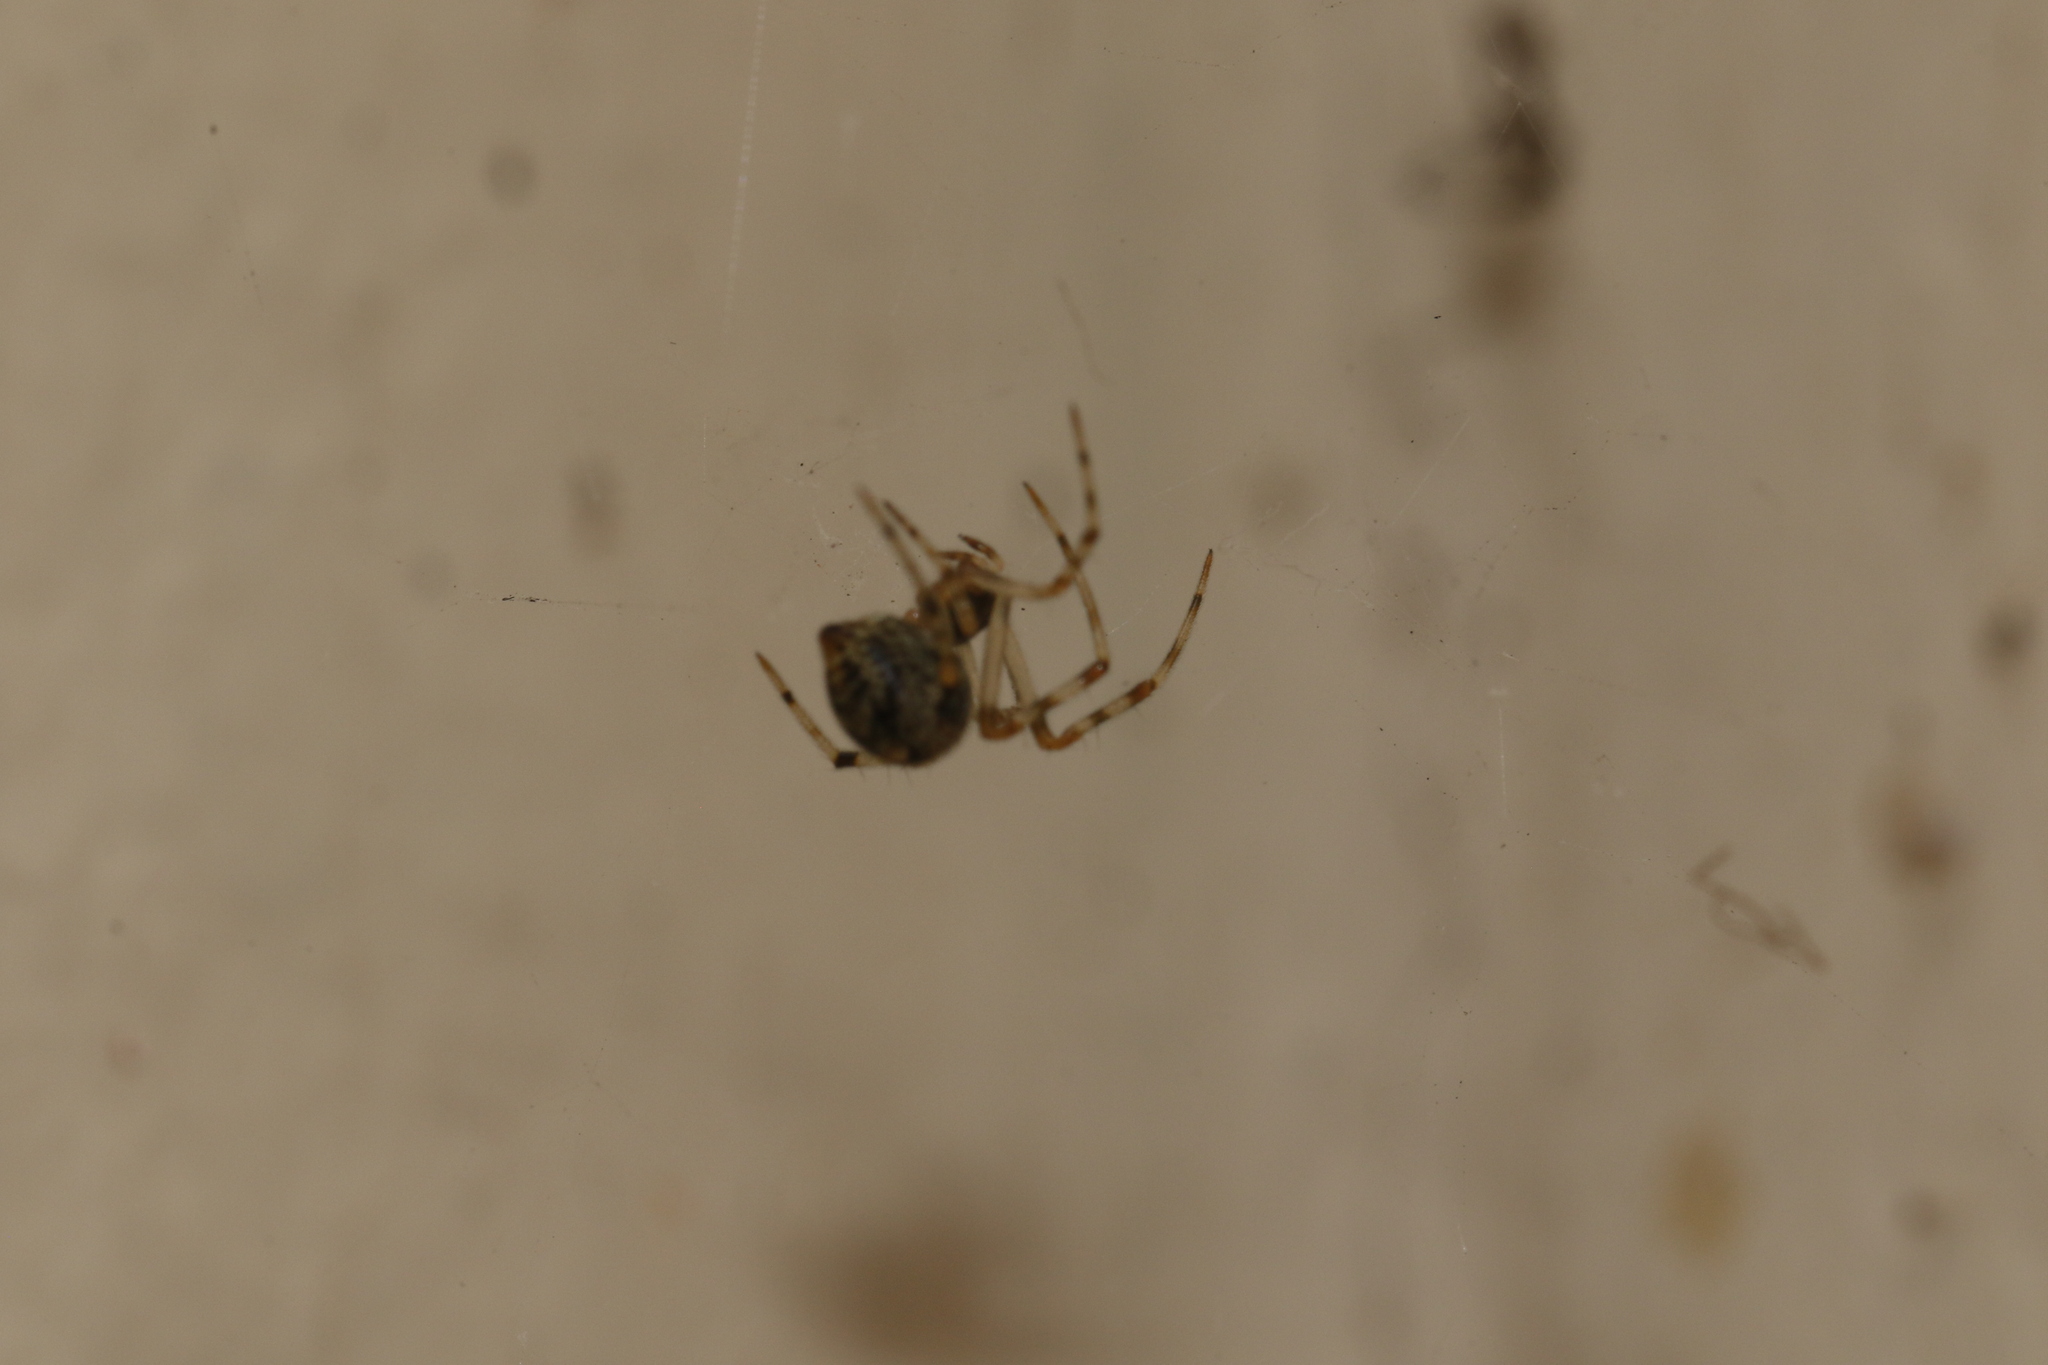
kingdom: Animalia
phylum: Arthropoda
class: Arachnida
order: Araneae
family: Theridiidae
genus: Parasteatoda
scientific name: Parasteatoda tepidariorum
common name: Common house spider
